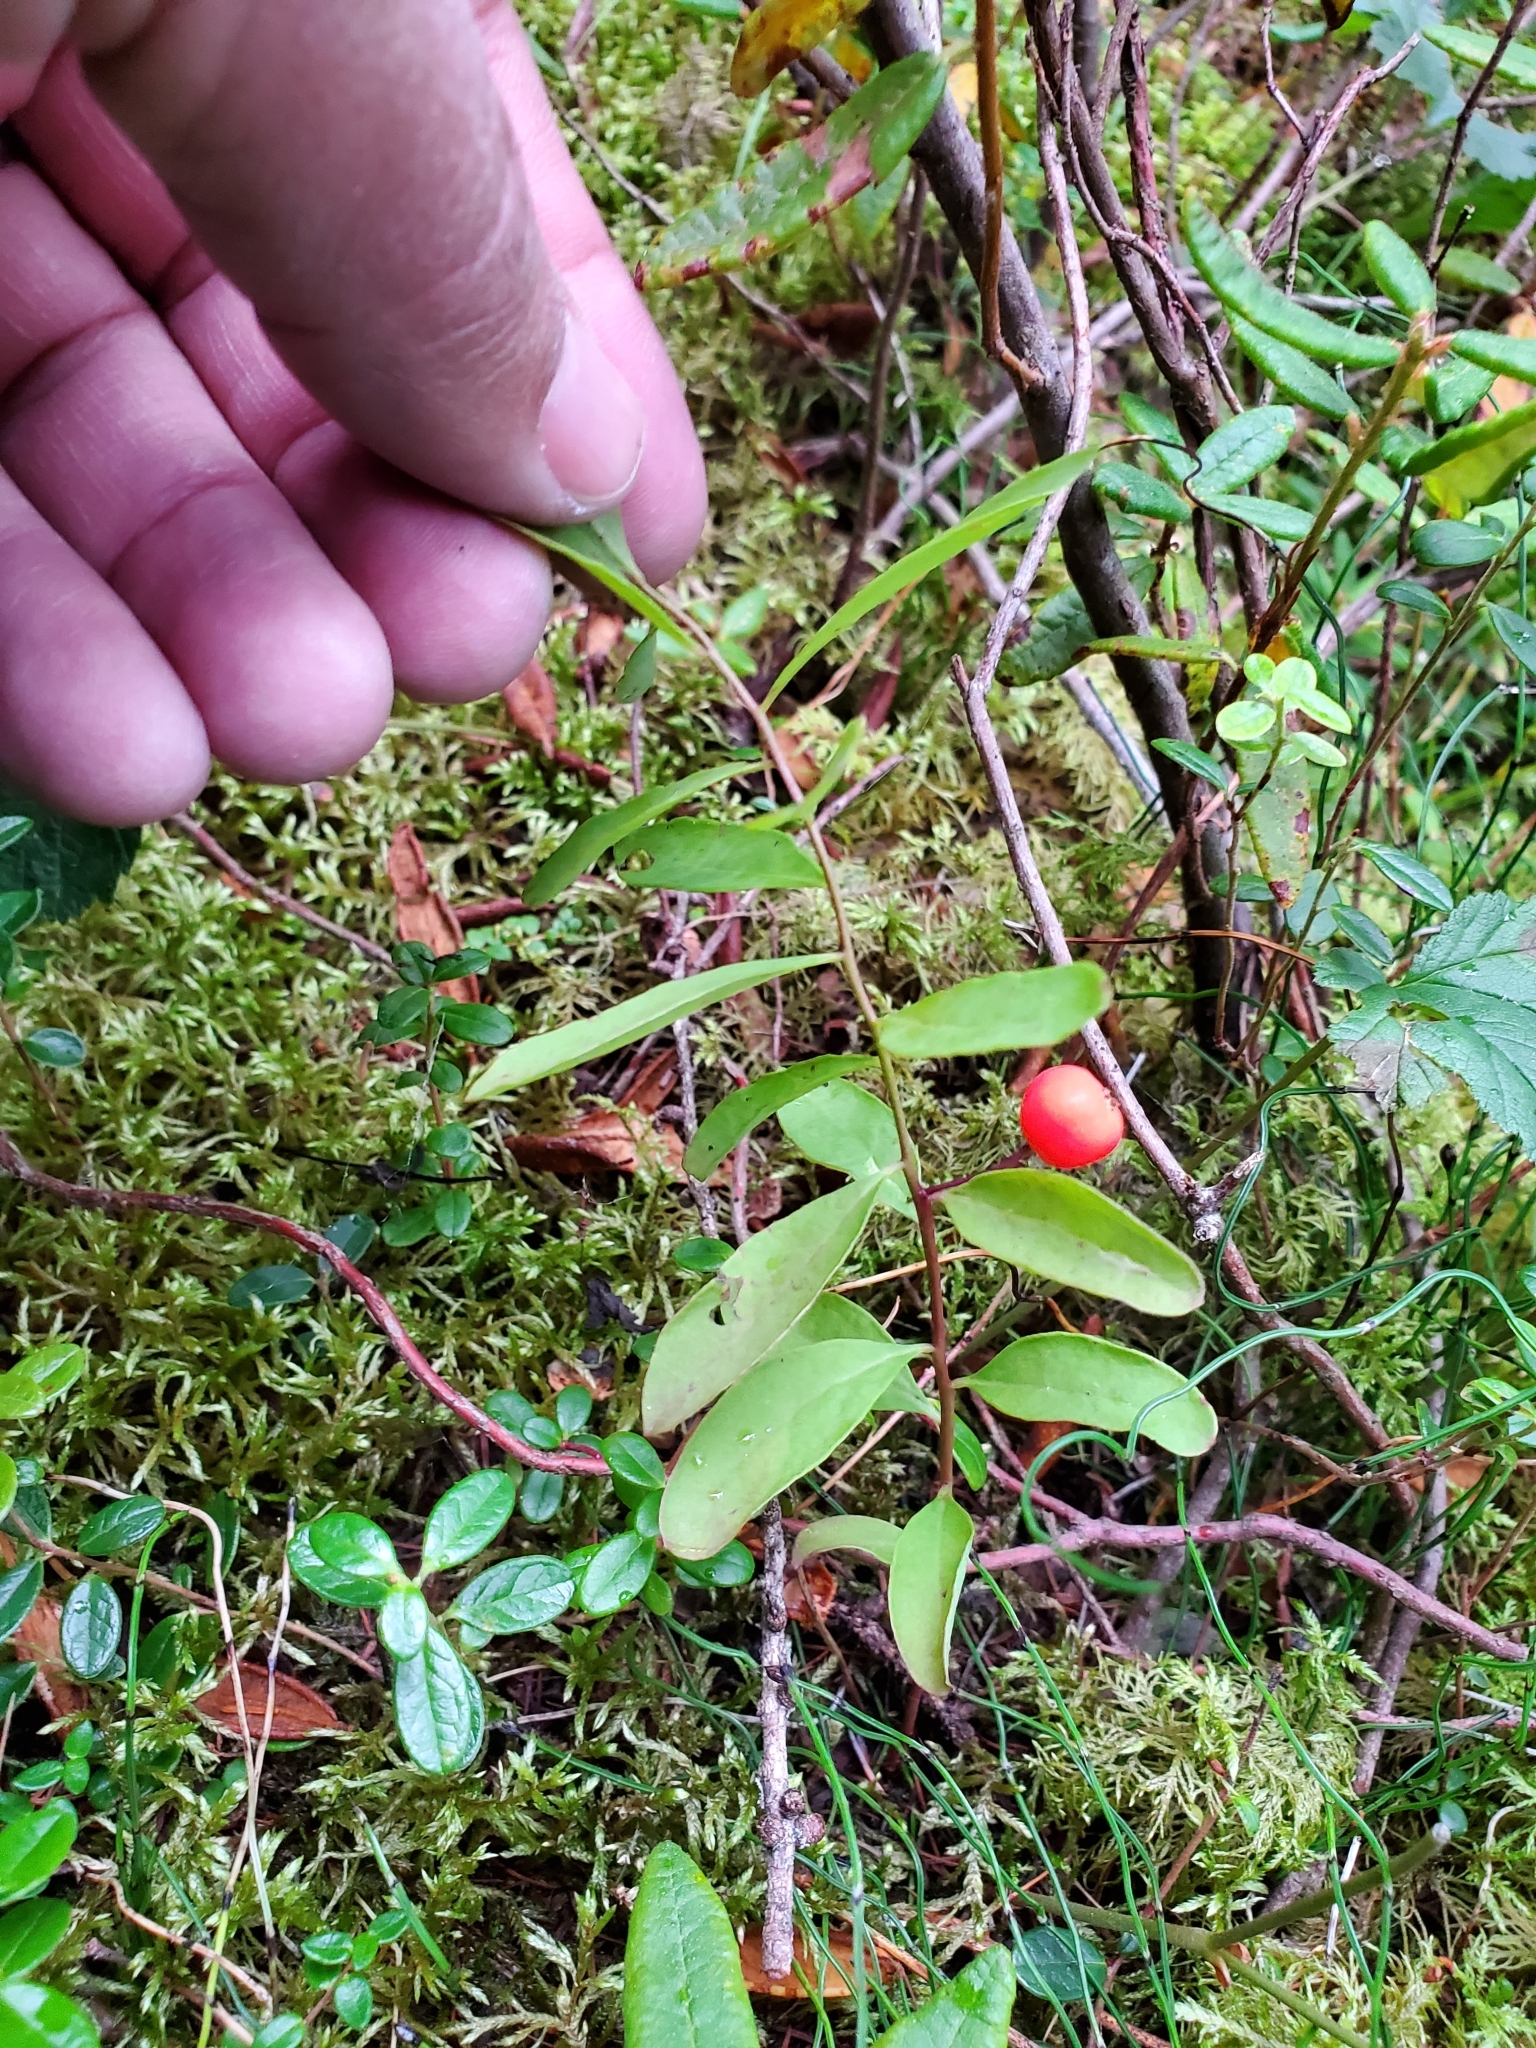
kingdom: Plantae
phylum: Tracheophyta
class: Magnoliopsida
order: Santalales
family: Comandraceae
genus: Geocaulon
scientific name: Geocaulon lividum
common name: Earthberry
